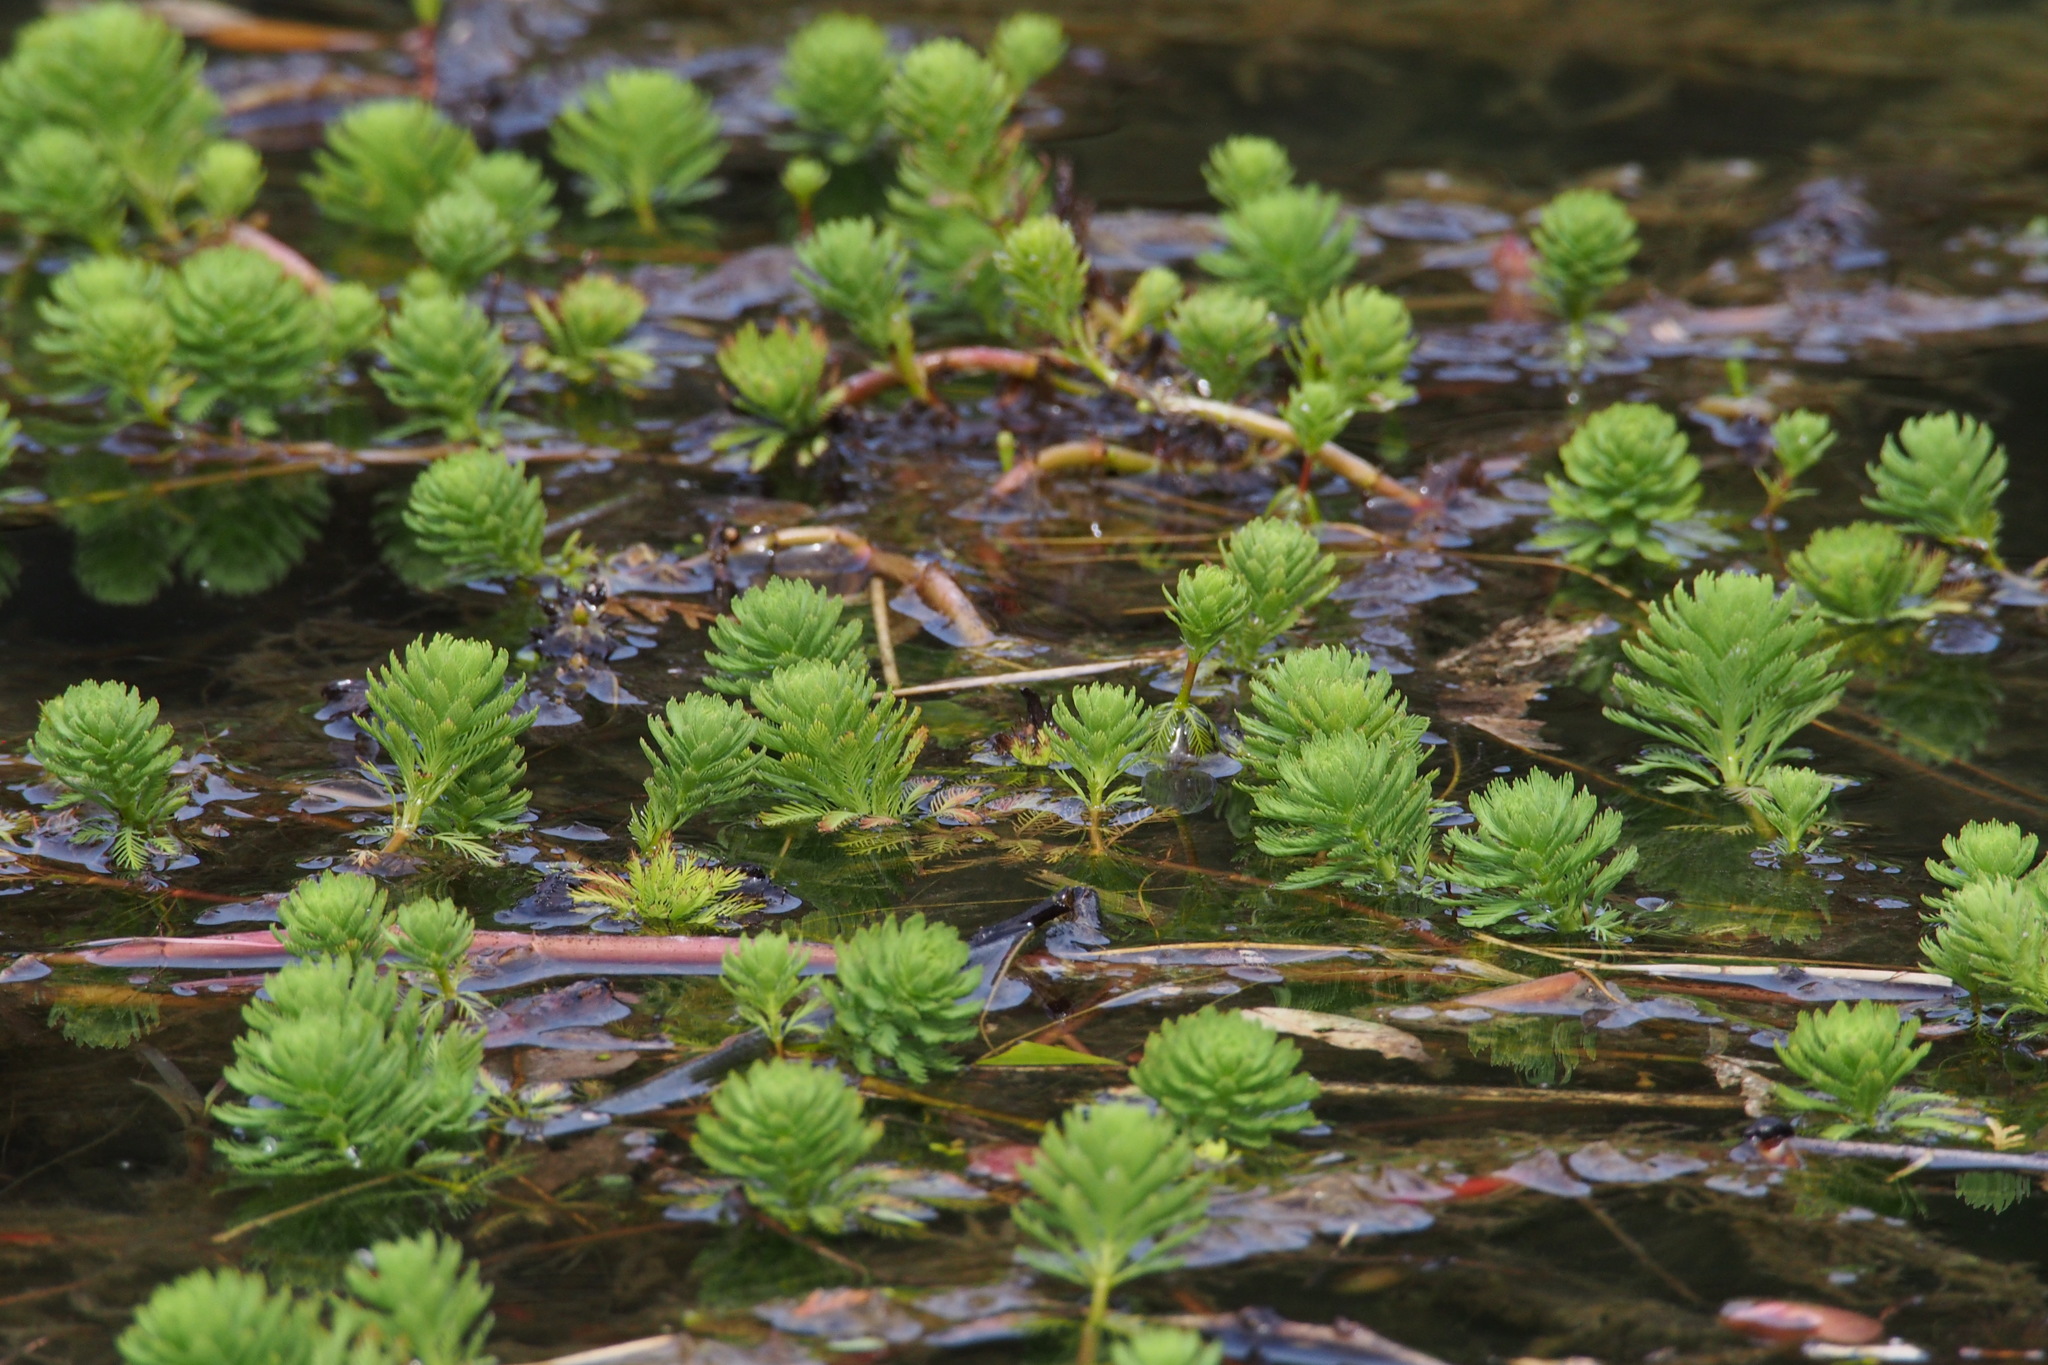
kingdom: Plantae
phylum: Tracheophyta
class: Magnoliopsida
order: Saxifragales
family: Haloragaceae
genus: Myriophyllum
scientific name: Myriophyllum aquaticum
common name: Parrot's feather
